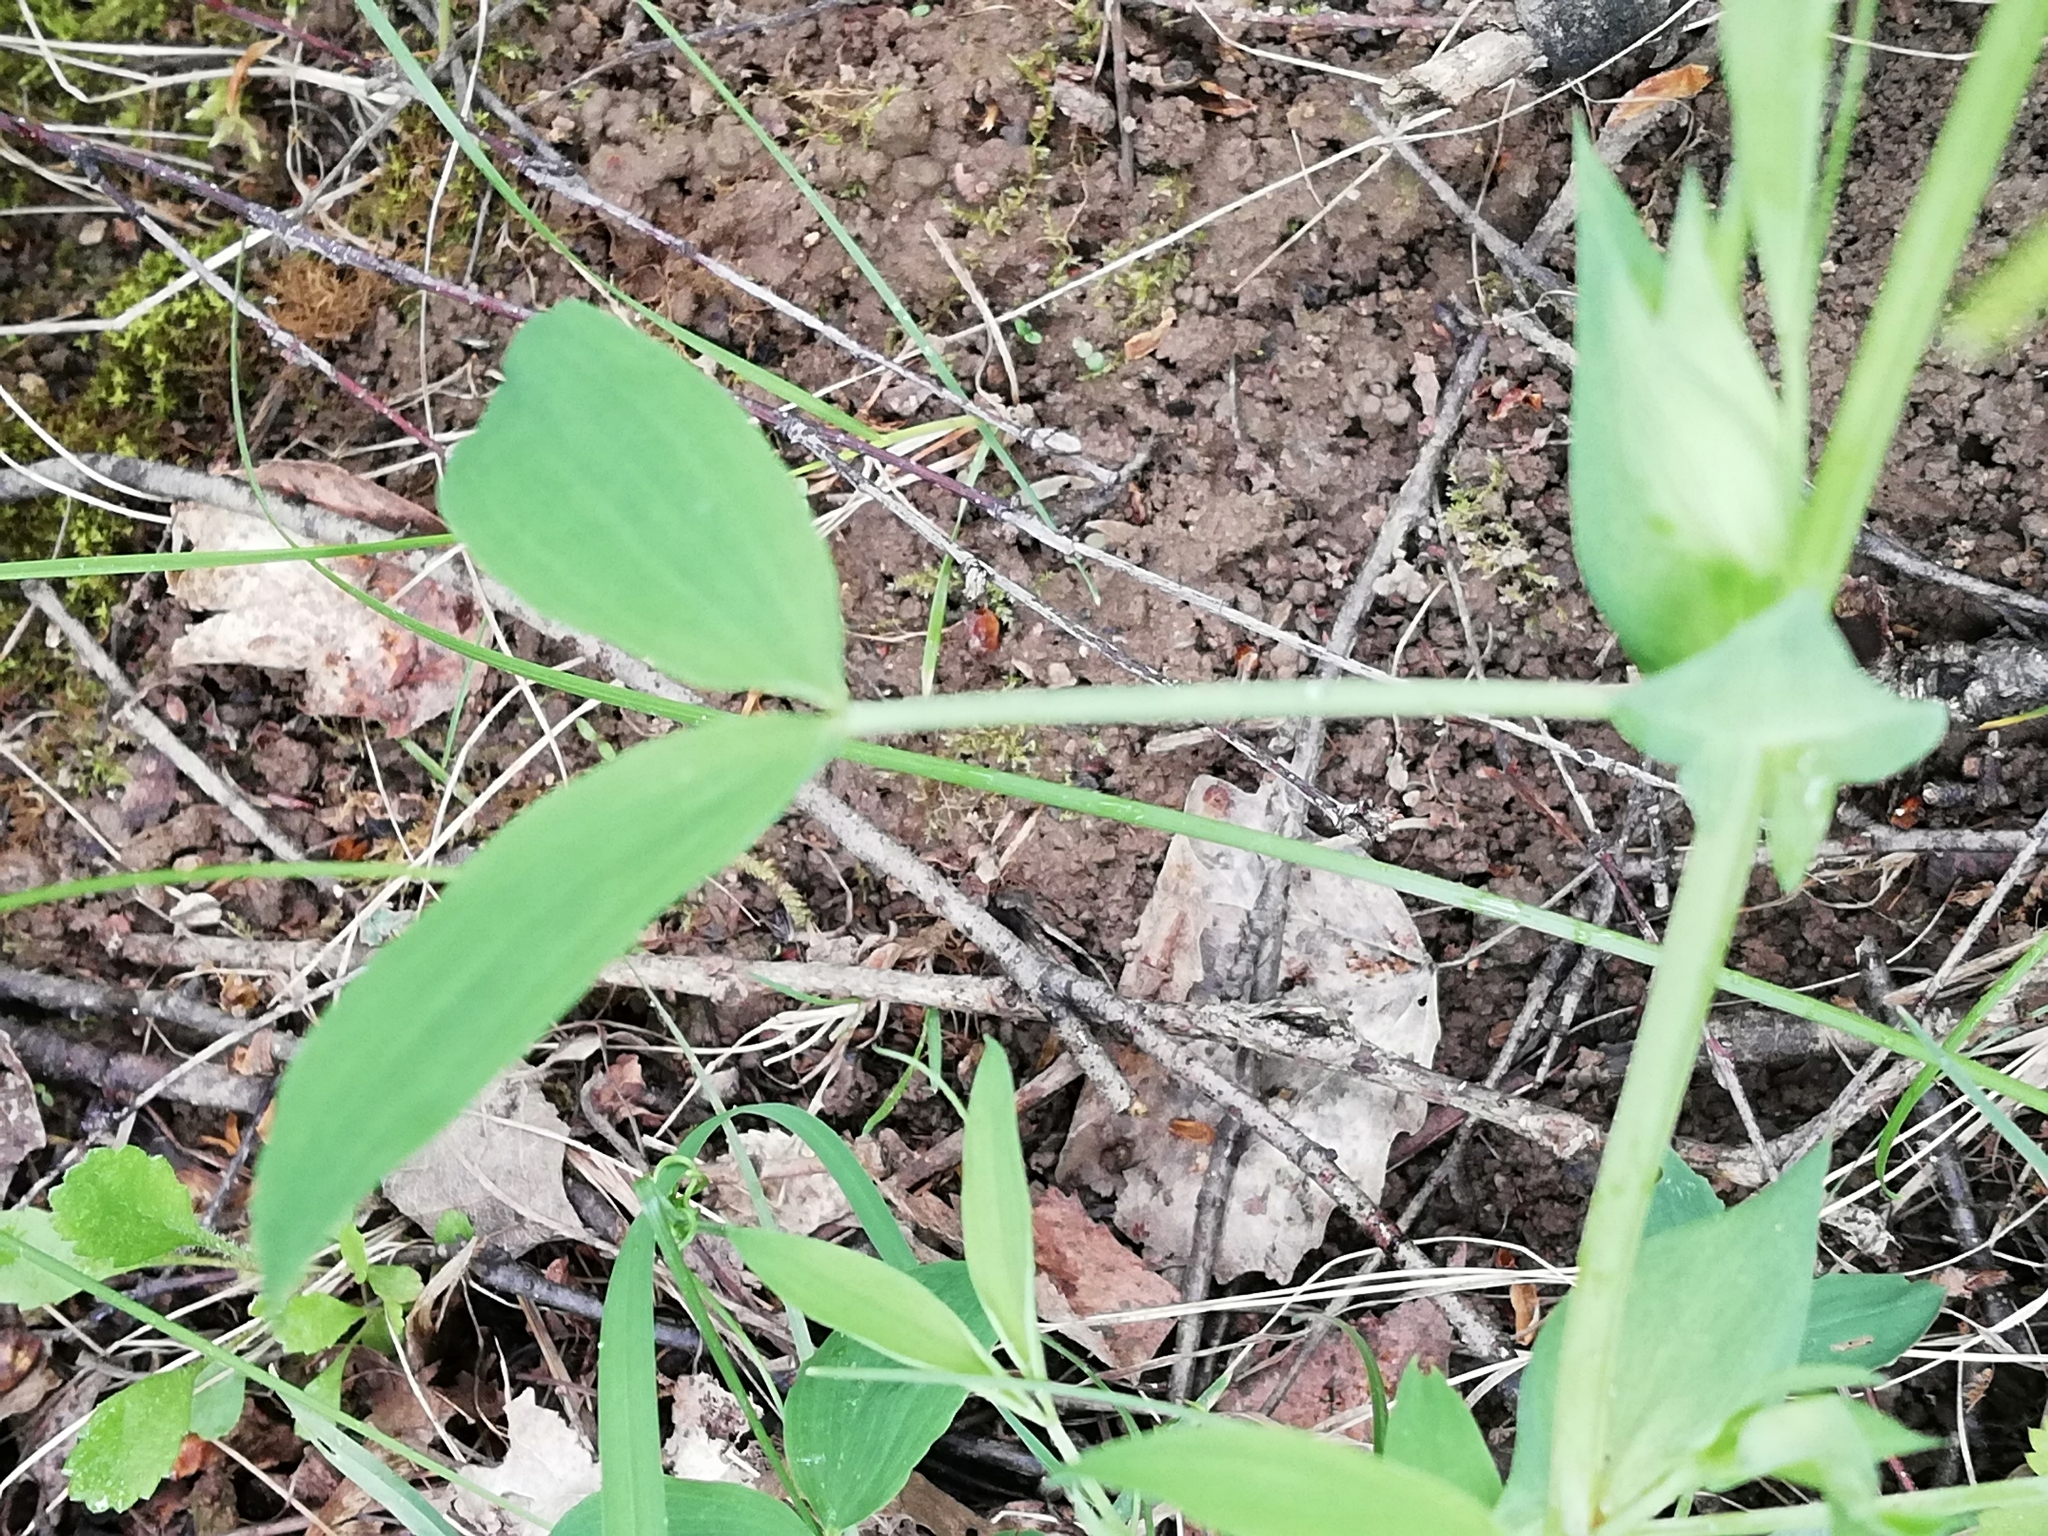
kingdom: Plantae
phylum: Tracheophyta
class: Magnoliopsida
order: Fabales
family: Fabaceae
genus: Lathyrus
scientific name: Lathyrus pratensis
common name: Meadow vetchling
